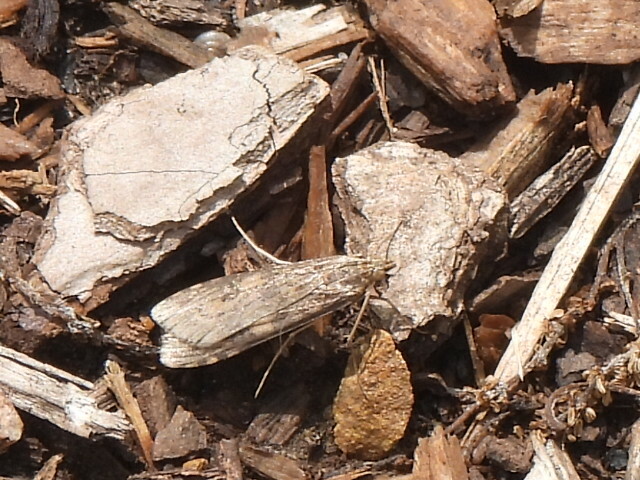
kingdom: Animalia
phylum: Arthropoda
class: Insecta
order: Lepidoptera
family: Crambidae
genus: Nomophila
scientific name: Nomophila nearctica
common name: American rush veneer
